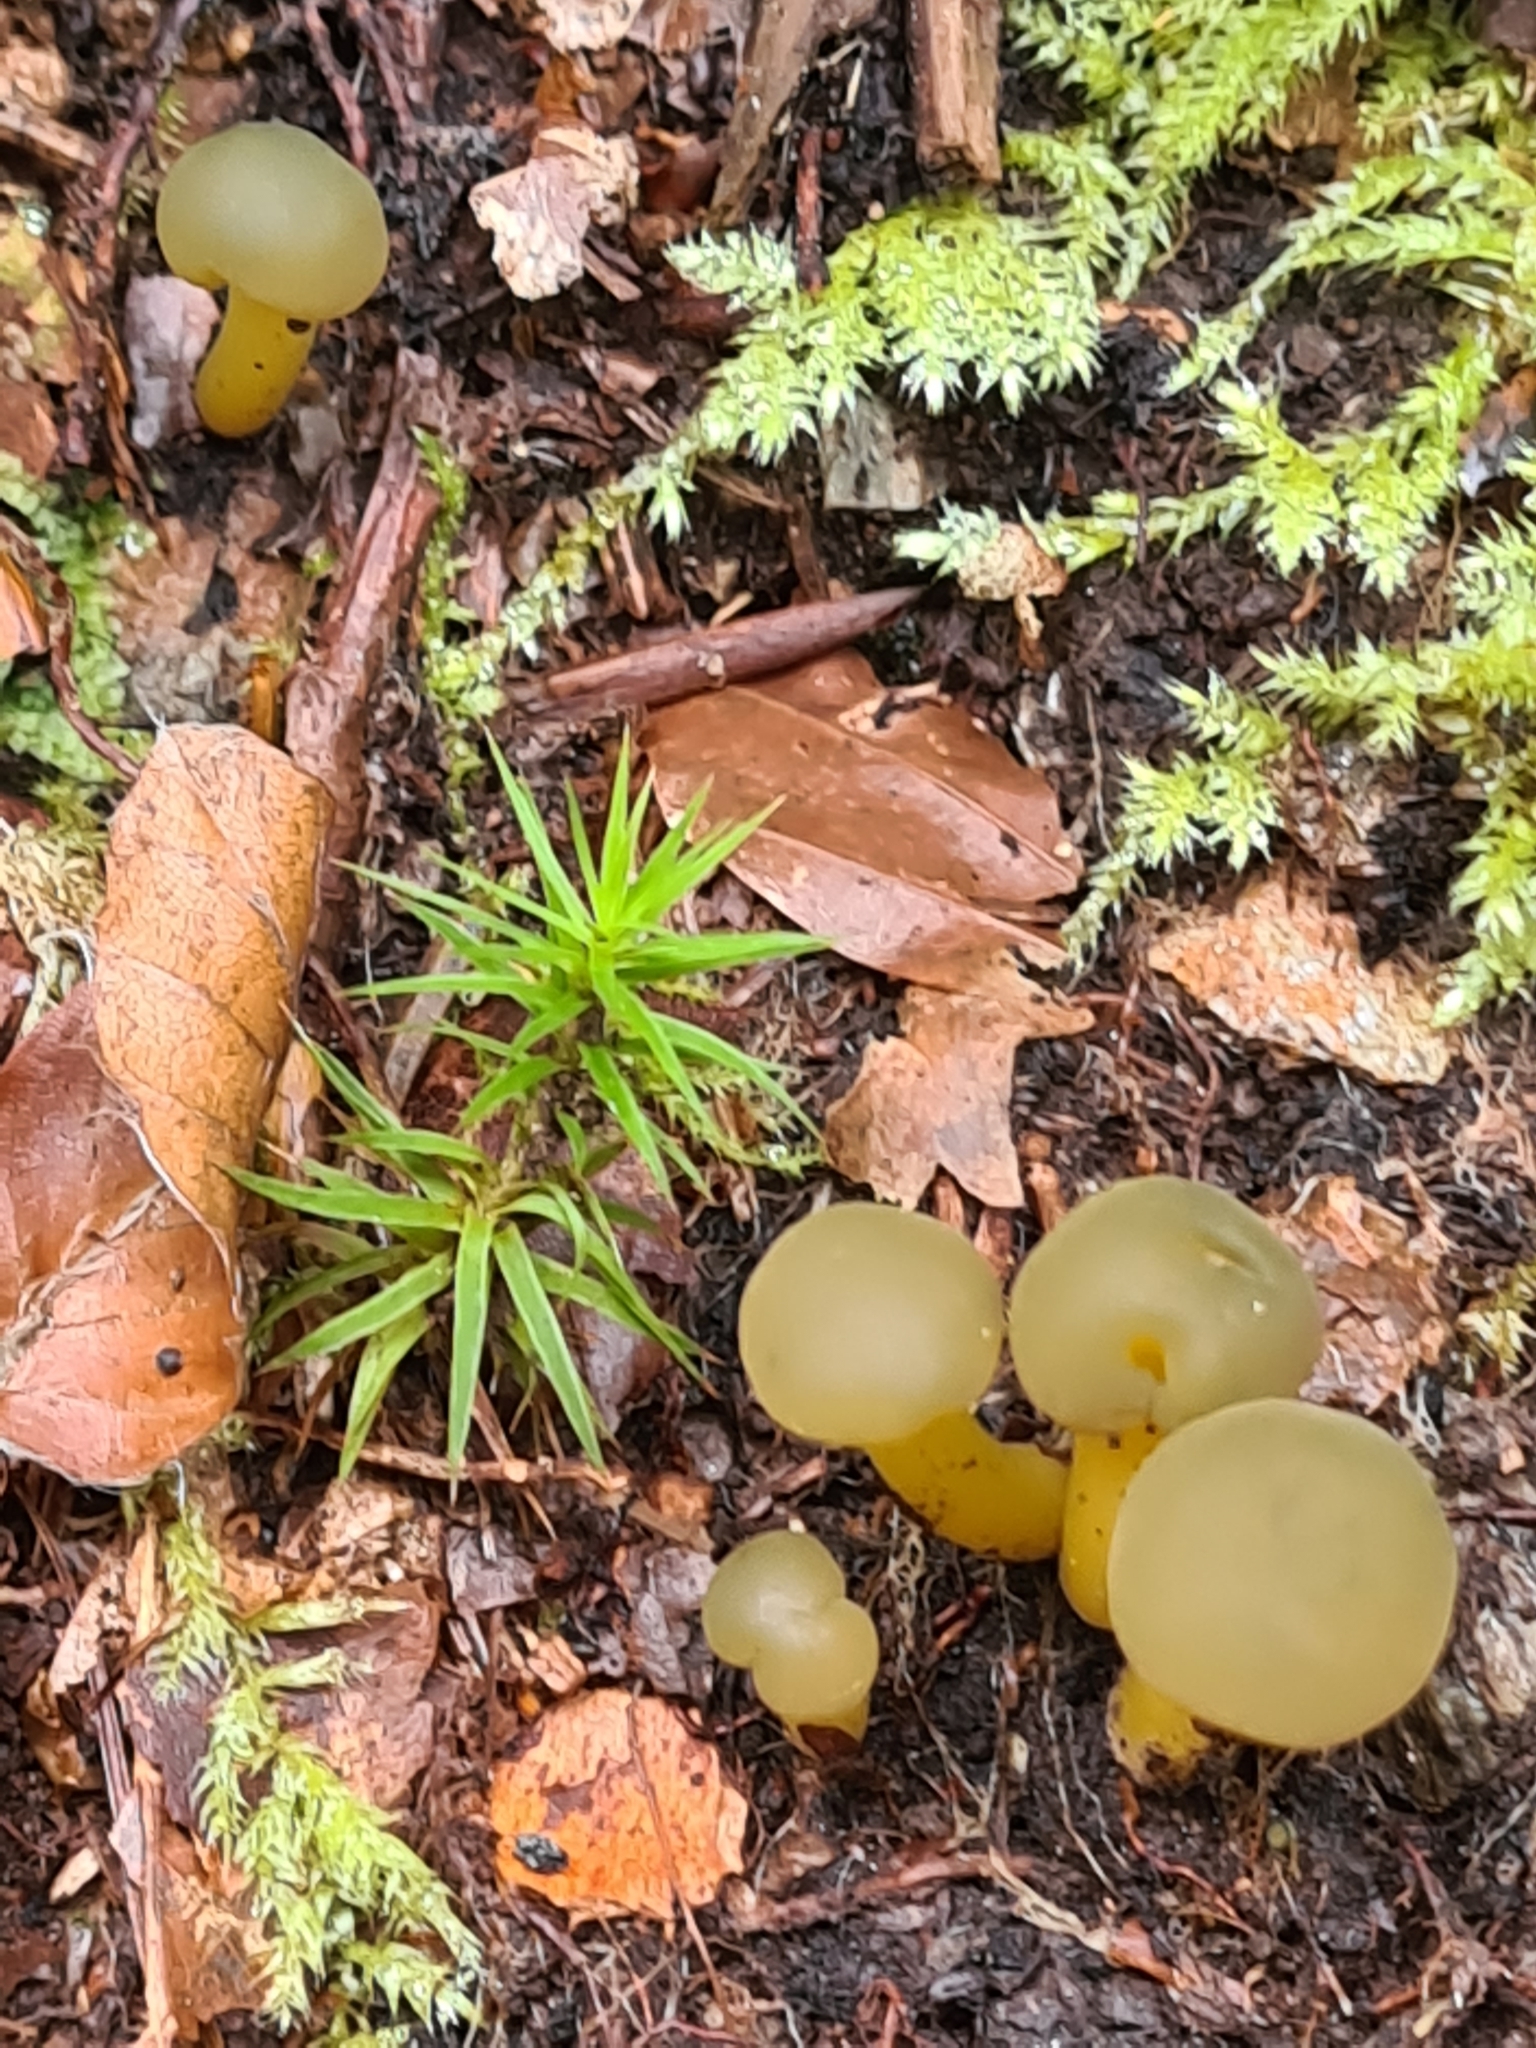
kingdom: Fungi
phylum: Ascomycota
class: Leotiomycetes
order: Leotiales
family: Leotiaceae
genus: Leotia
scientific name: Leotia lubrica
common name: Jellybaby
